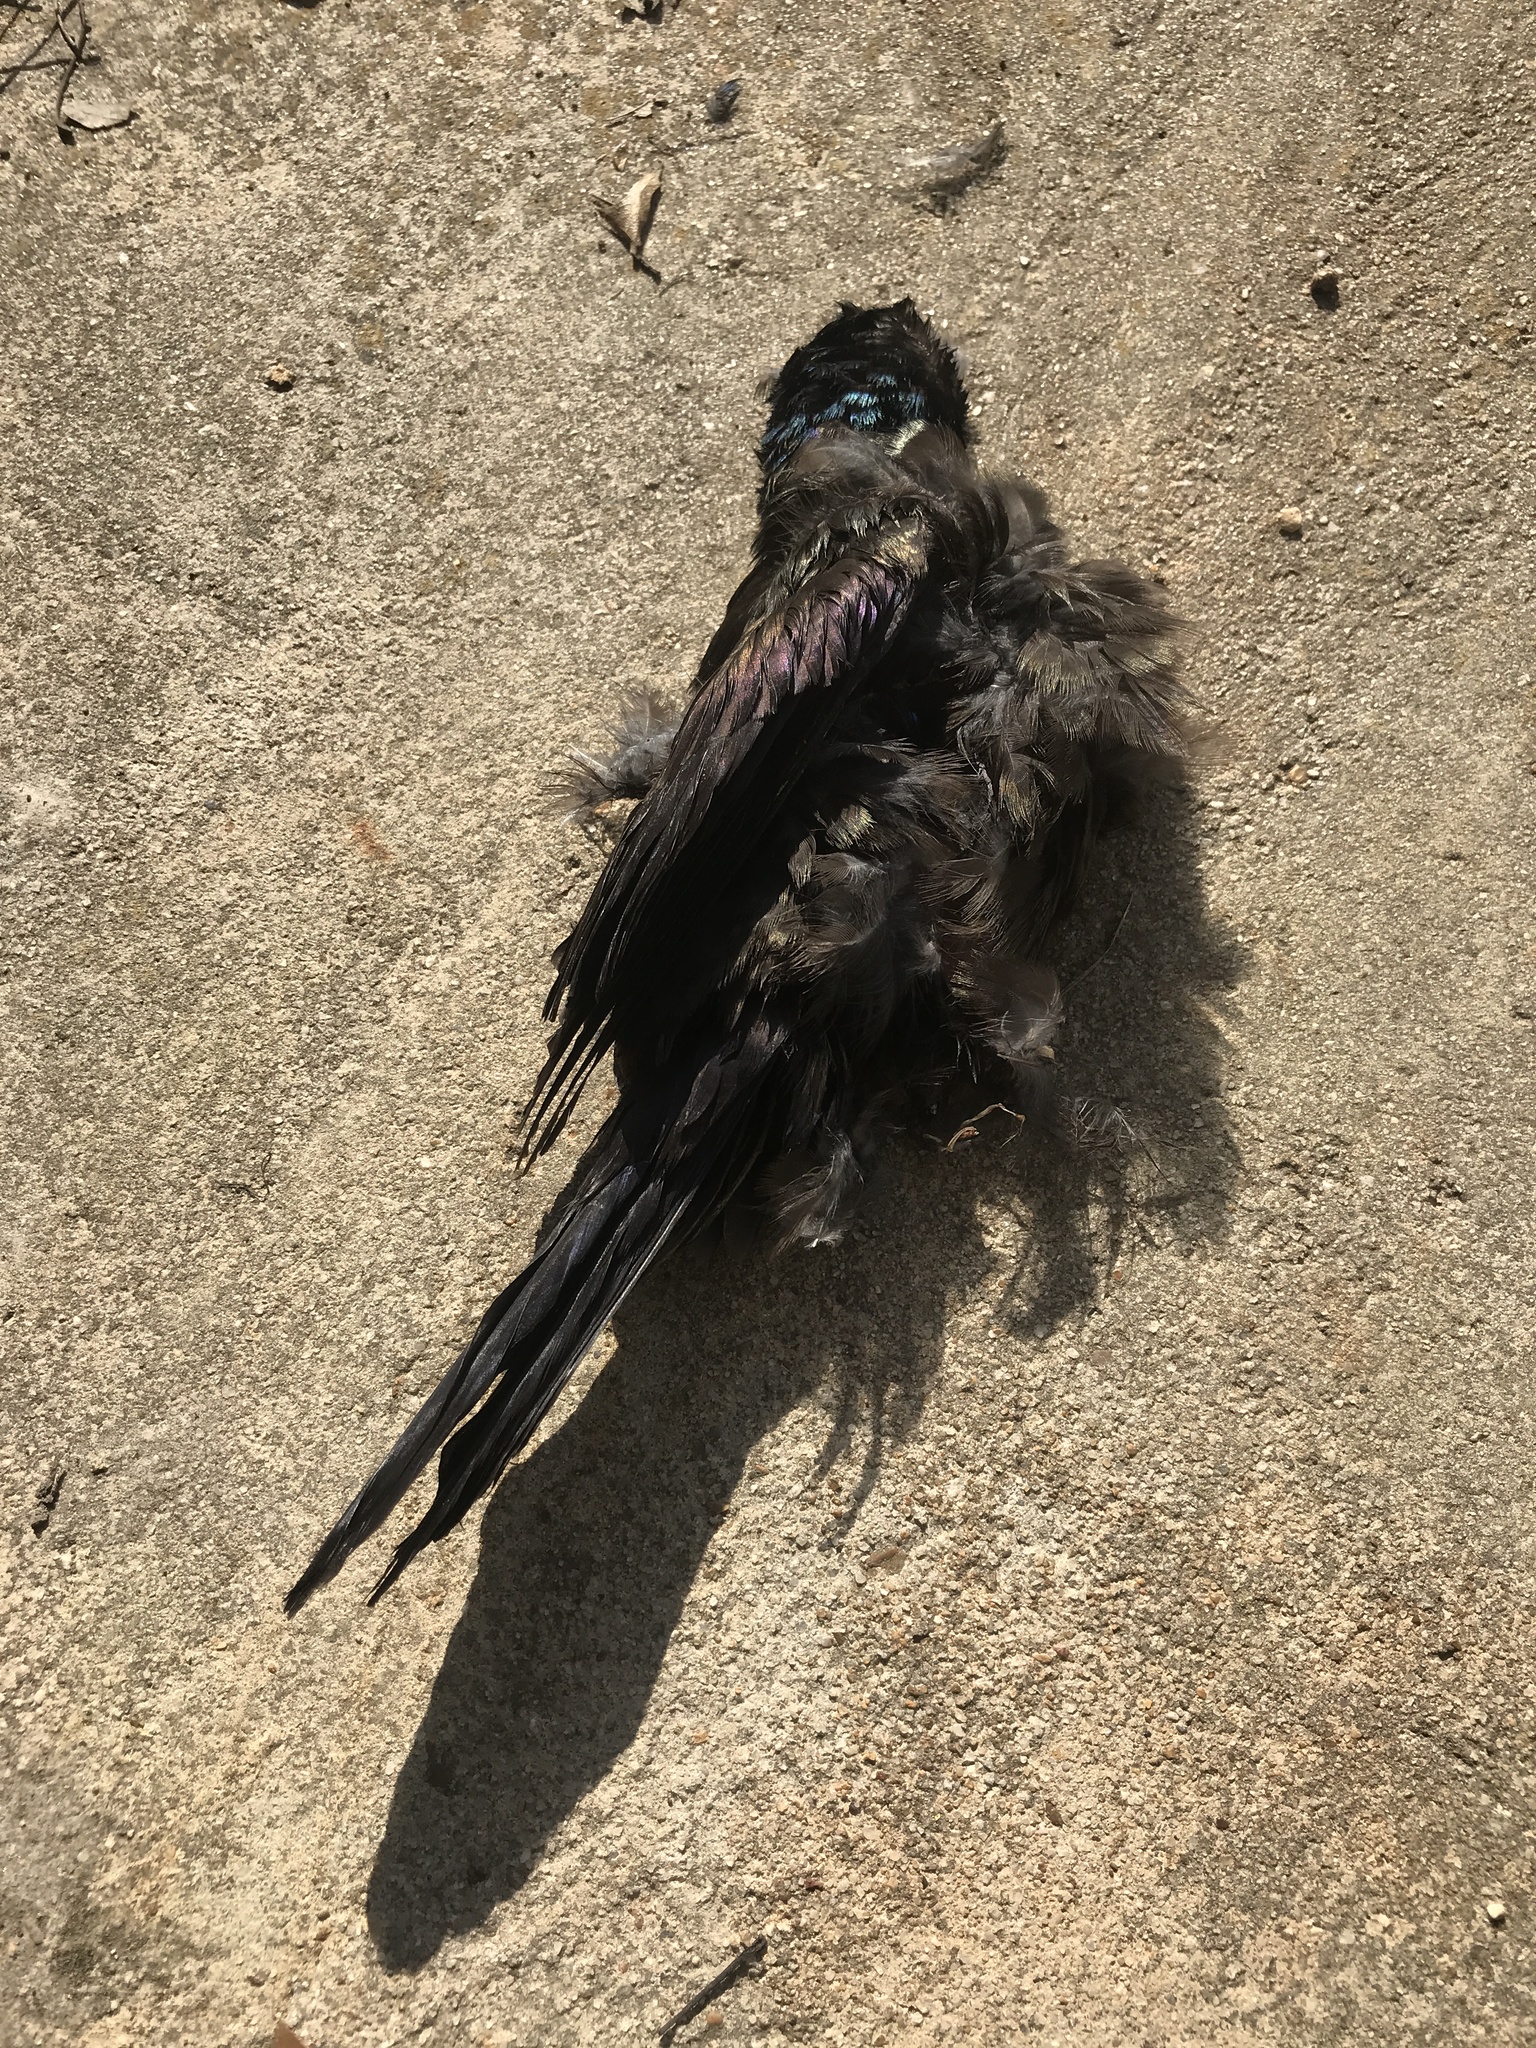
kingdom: Animalia
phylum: Chordata
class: Aves
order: Passeriformes
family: Icteridae
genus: Quiscalus
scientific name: Quiscalus quiscula
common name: Common grackle
